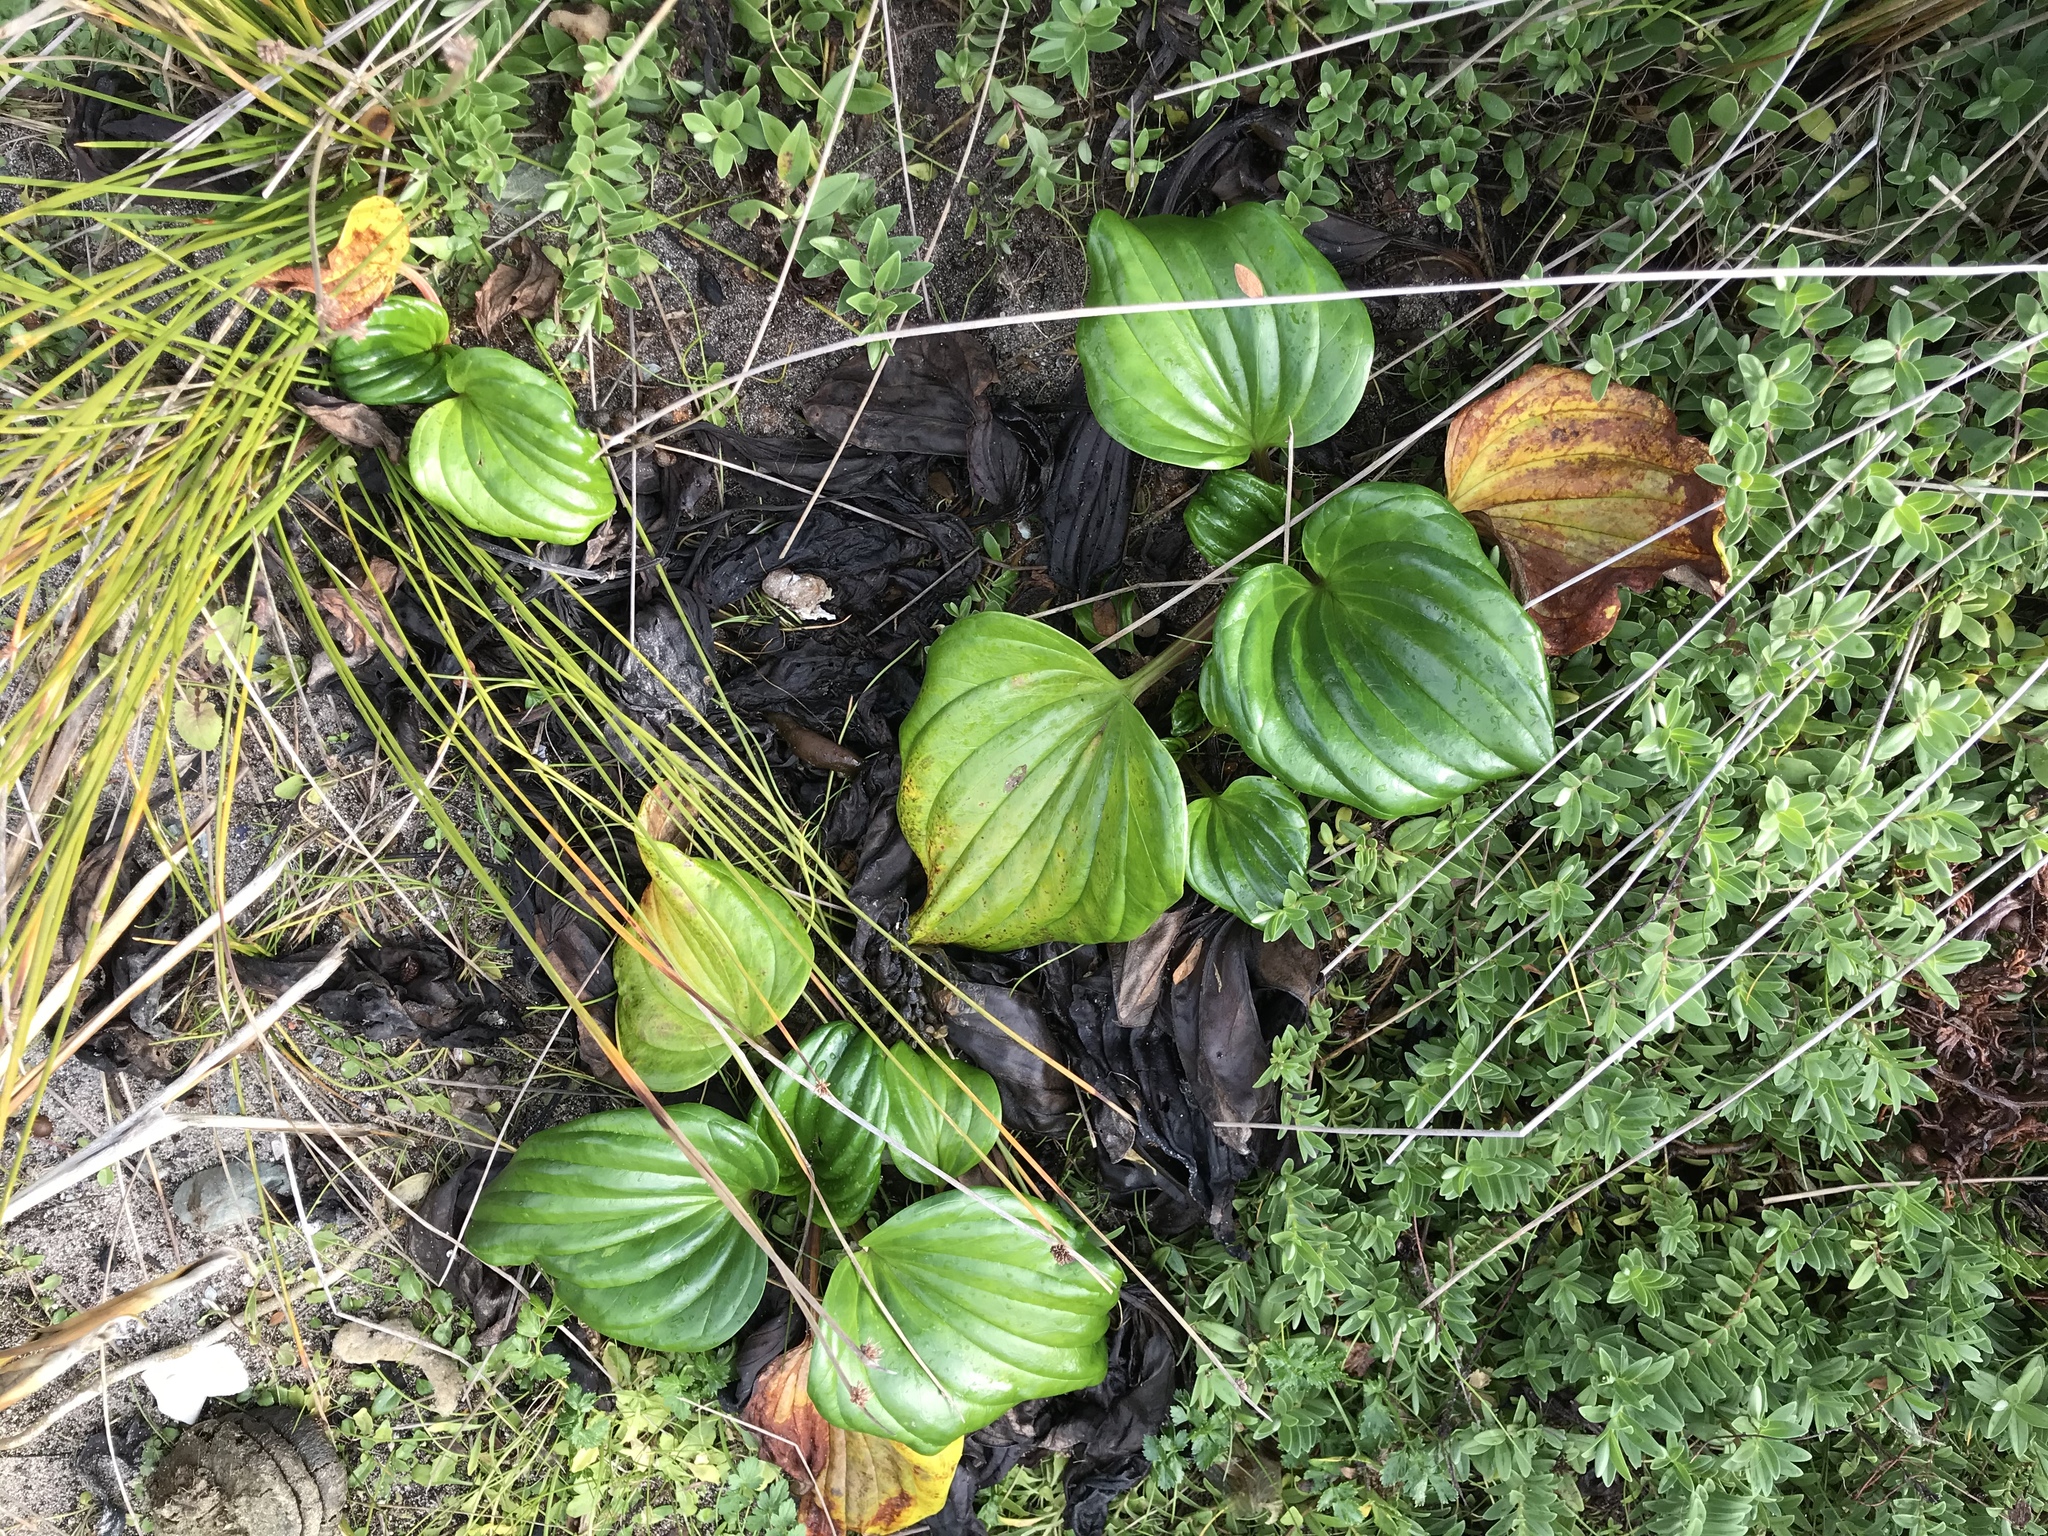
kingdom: Plantae
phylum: Tracheophyta
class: Magnoliopsida
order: Boraginales
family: Boraginaceae
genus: Myosotidium
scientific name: Myosotidium hortensia
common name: Giant forget-me-not
